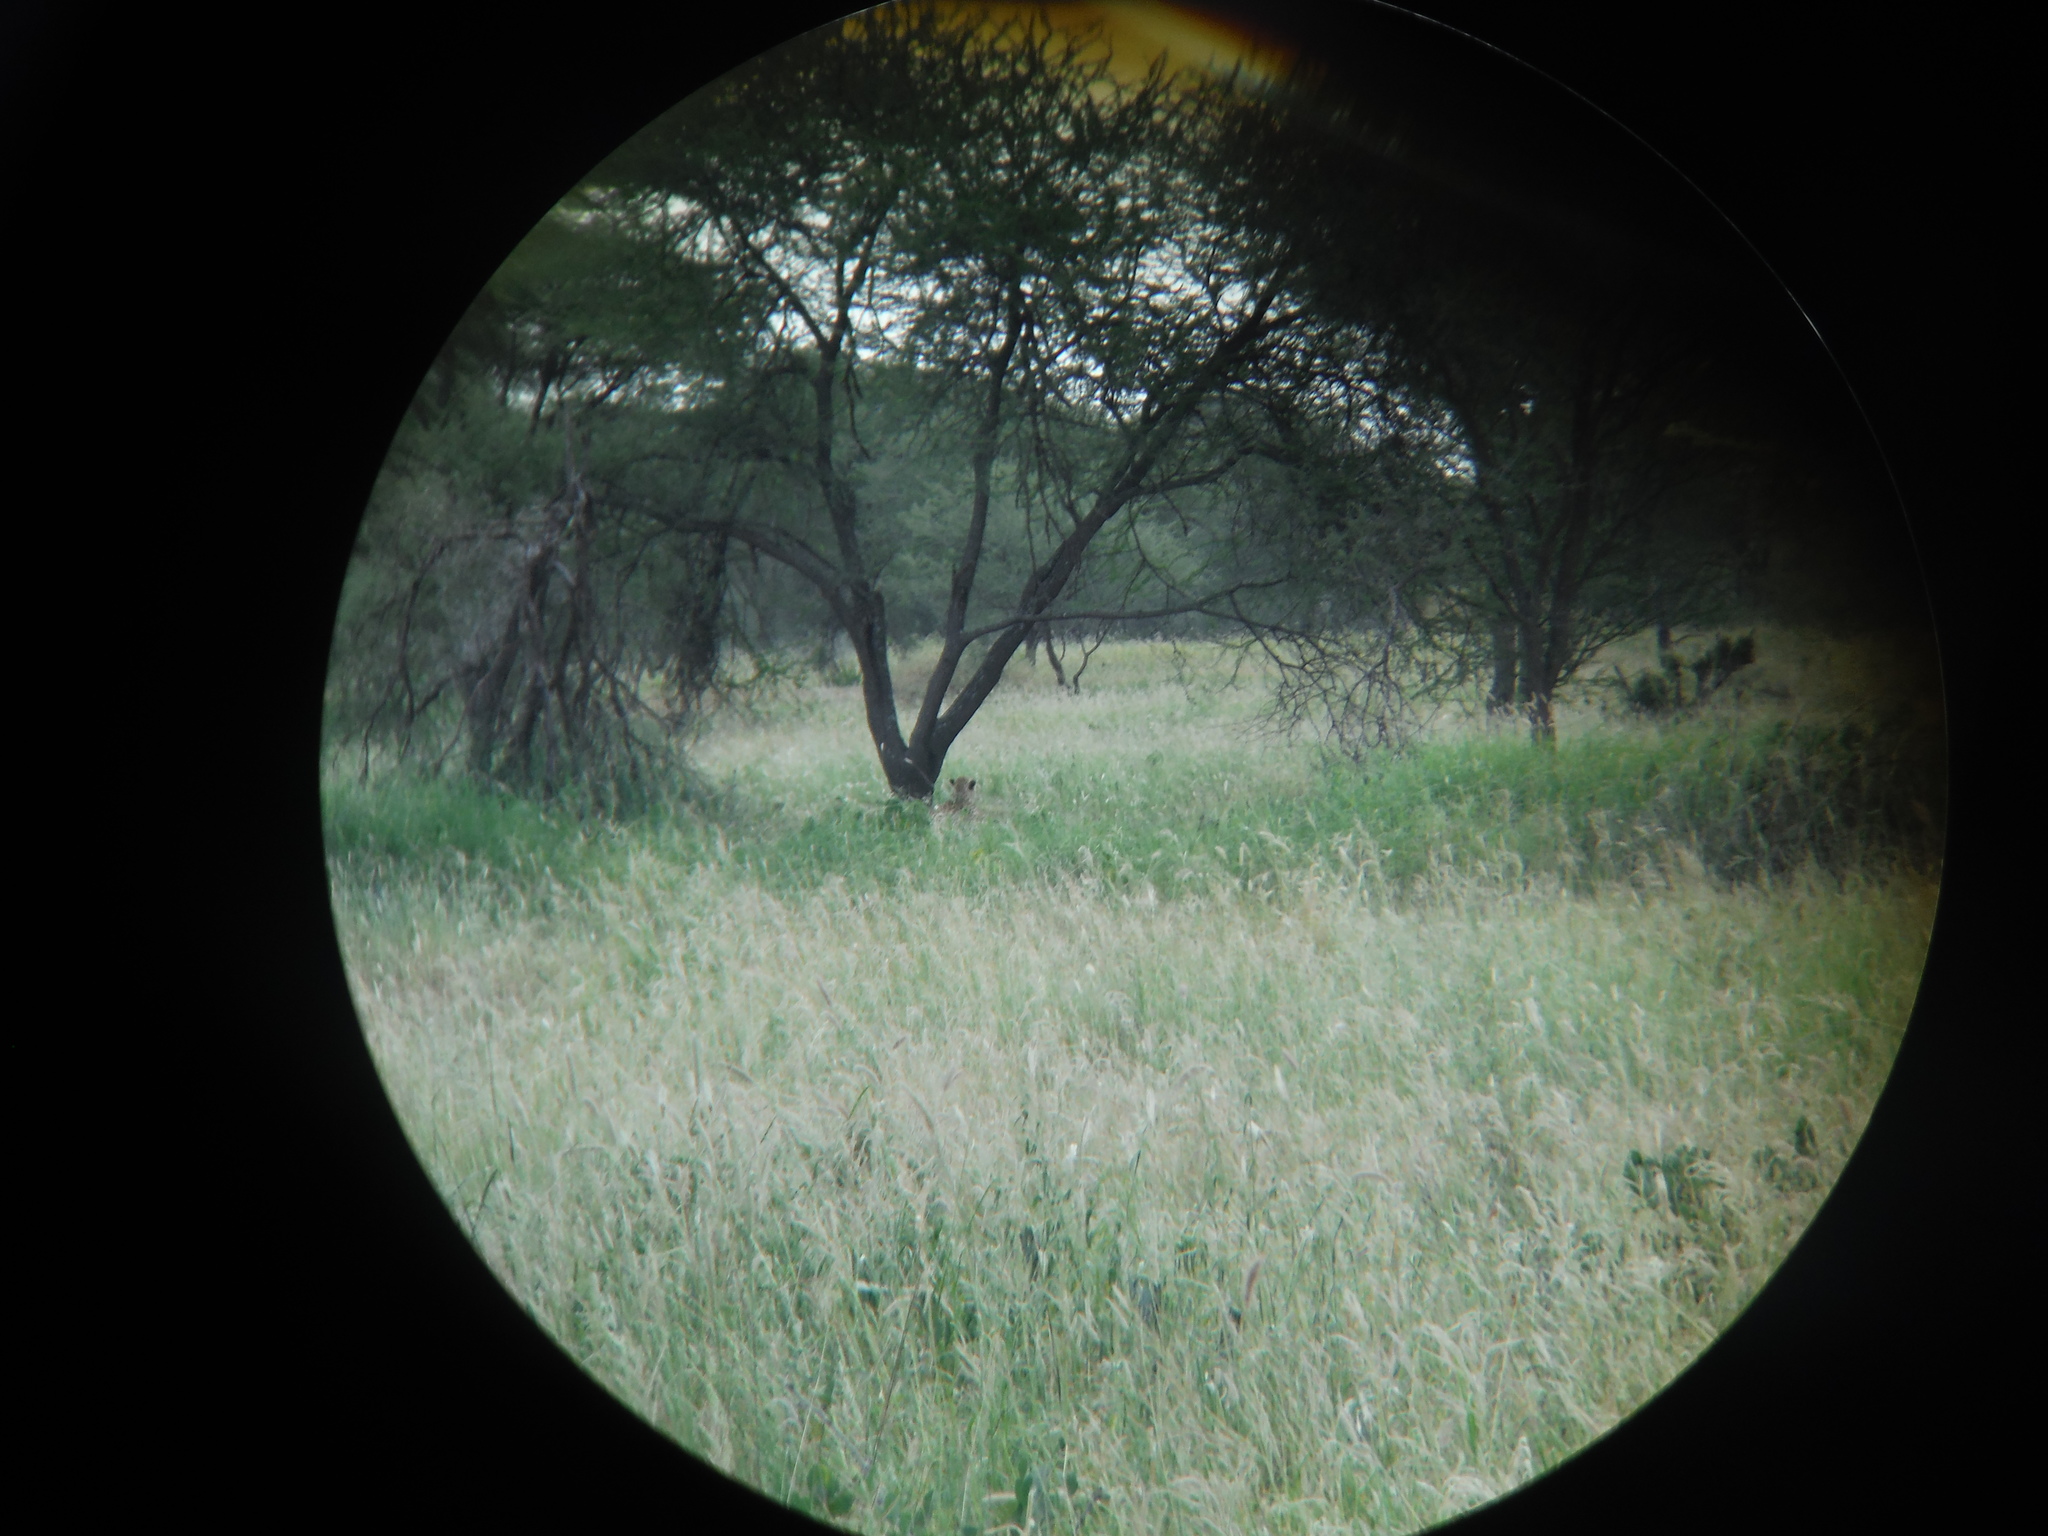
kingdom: Animalia
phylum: Chordata
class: Mammalia
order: Carnivora
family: Felidae
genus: Acinonyx
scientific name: Acinonyx jubatus
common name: Cheetah
